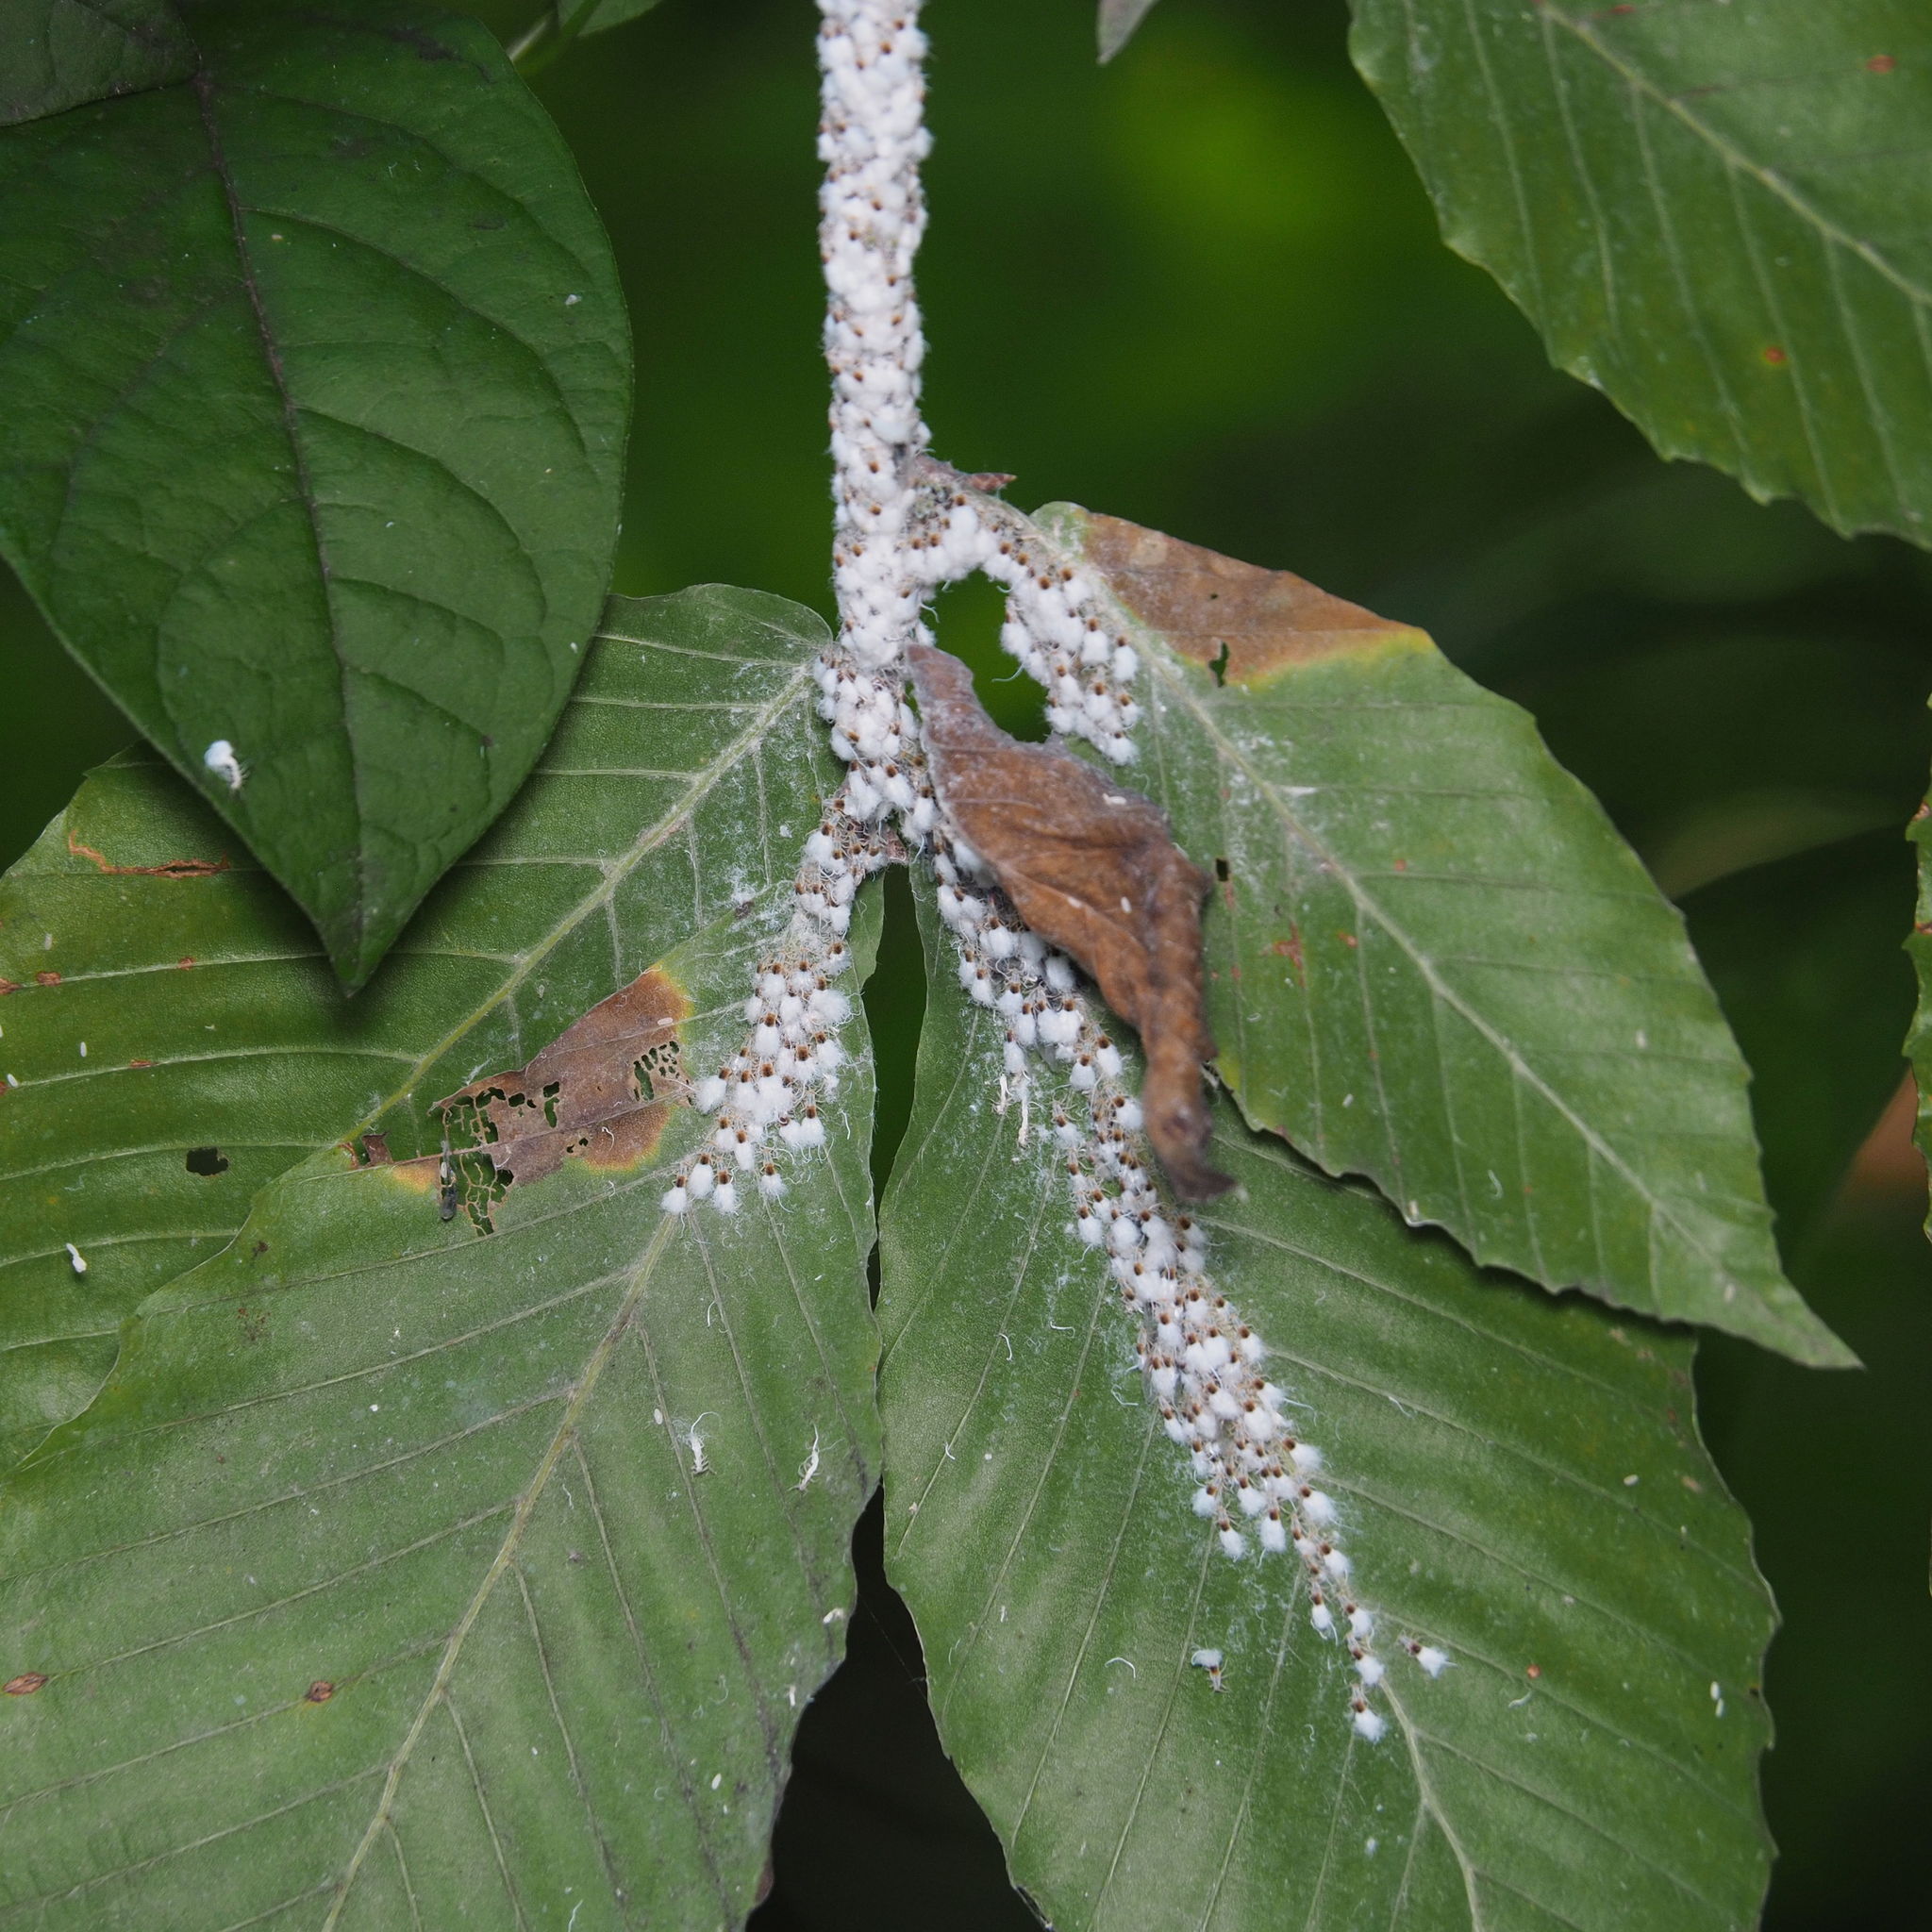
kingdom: Animalia
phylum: Arthropoda
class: Insecta
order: Hemiptera
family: Aphididae
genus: Grylloprociphilus
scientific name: Grylloprociphilus imbricator
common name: Beech blight aphid
